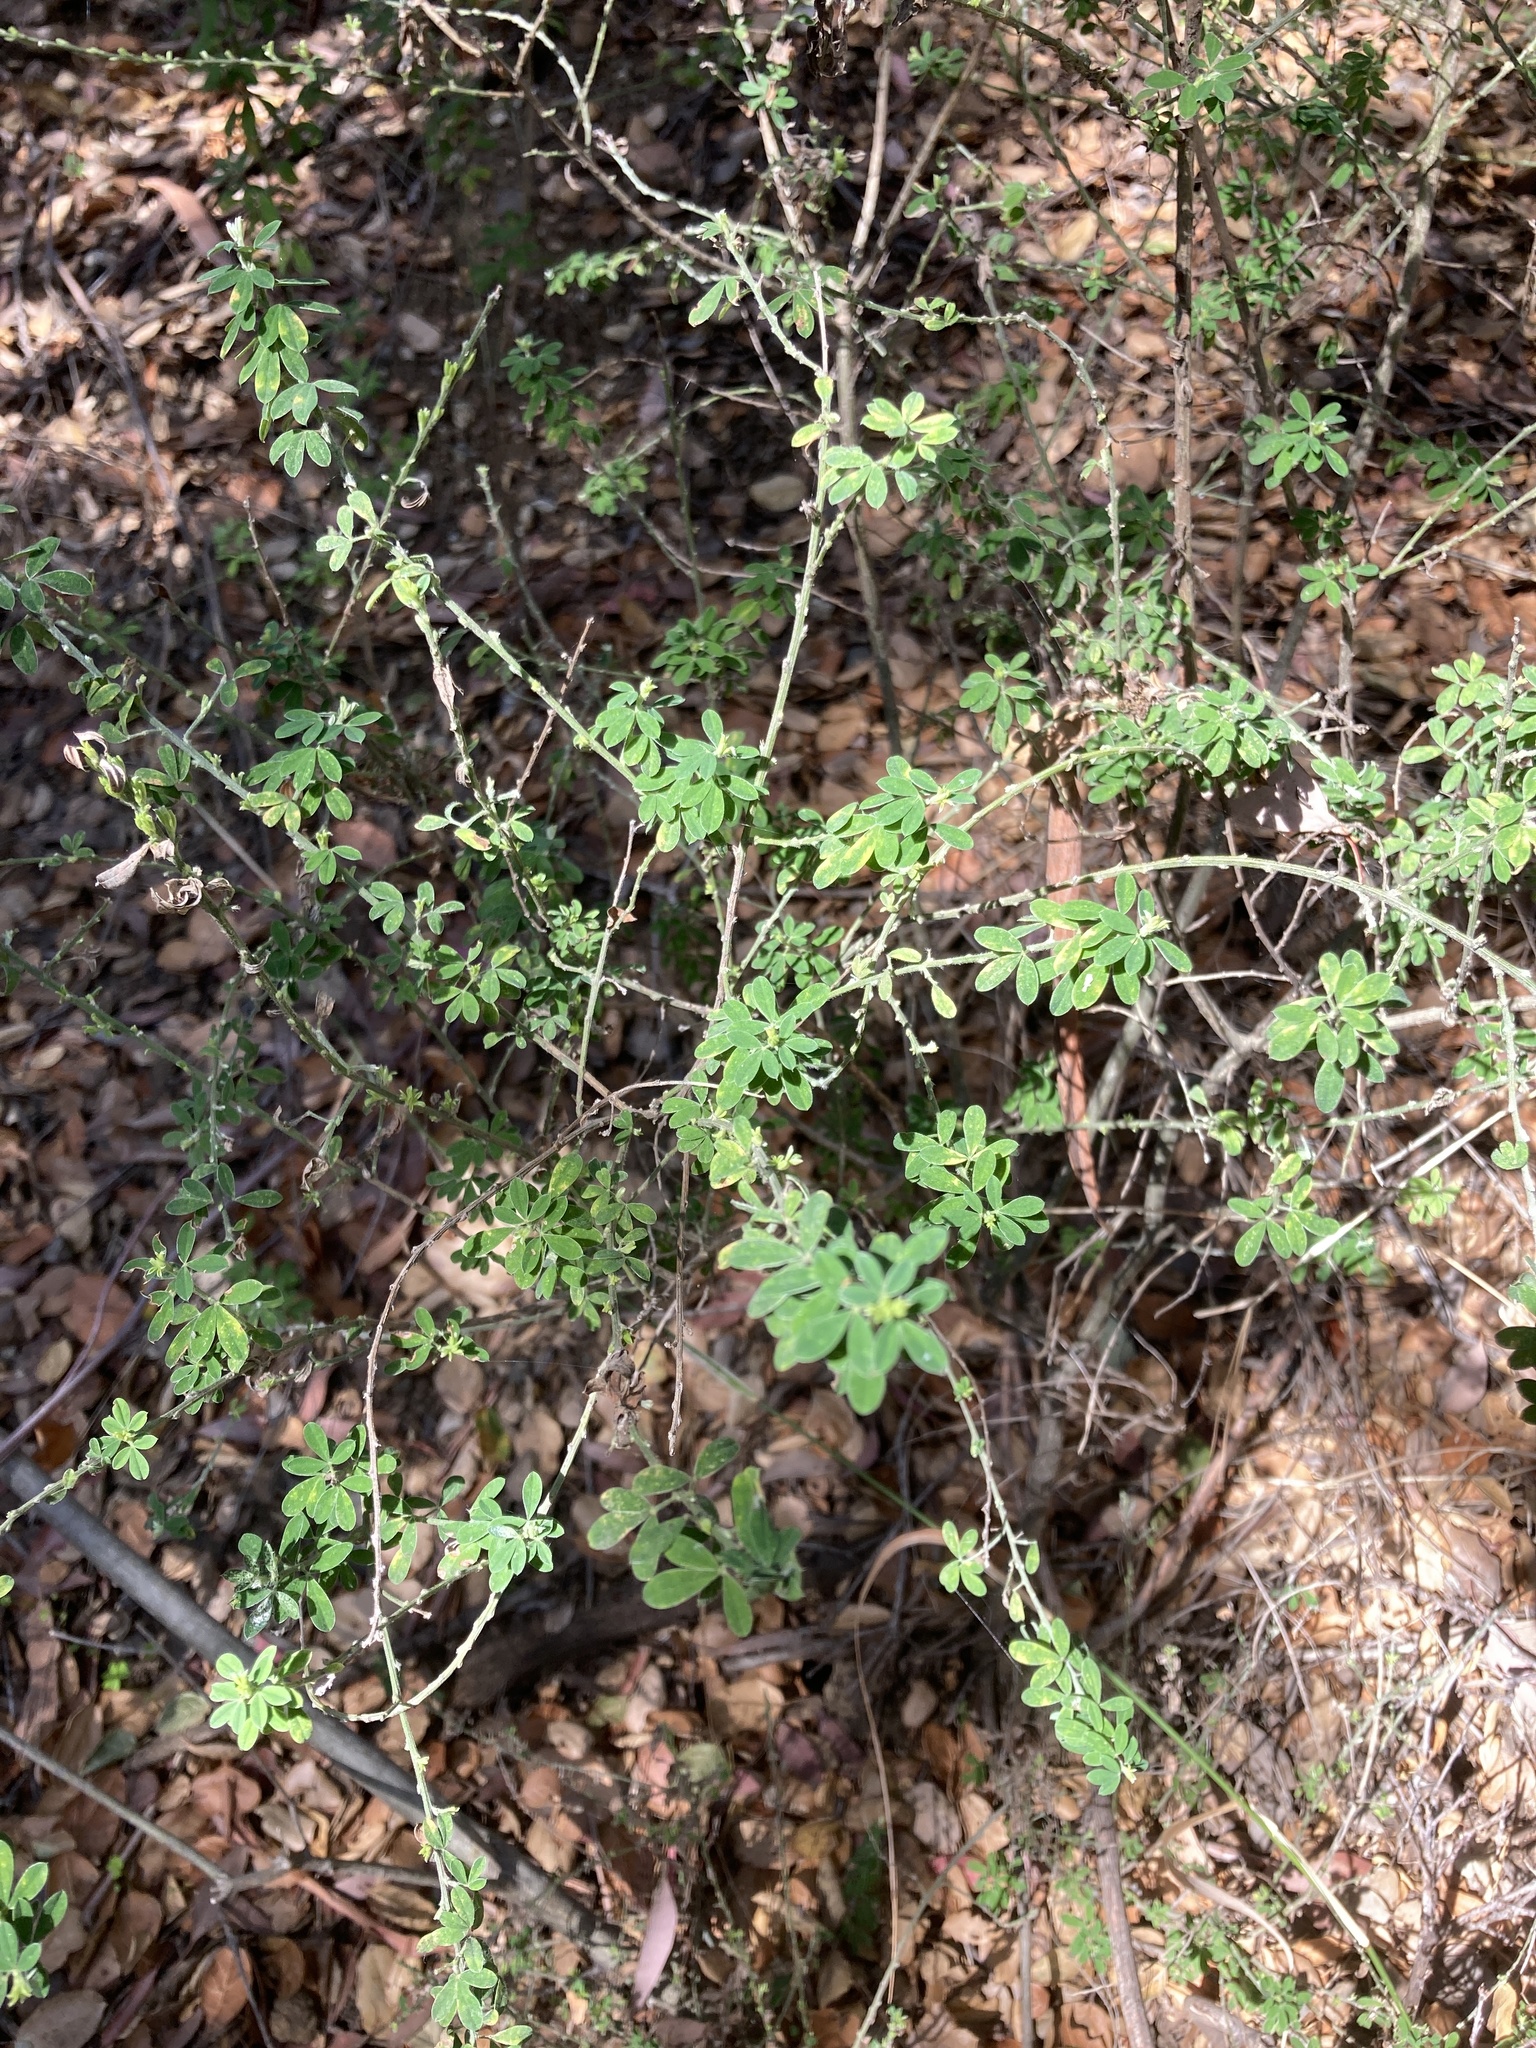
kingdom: Plantae
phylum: Tracheophyta
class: Magnoliopsida
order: Fabales
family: Fabaceae
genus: Genista
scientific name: Genista monspessulana
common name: Montpellier broom
